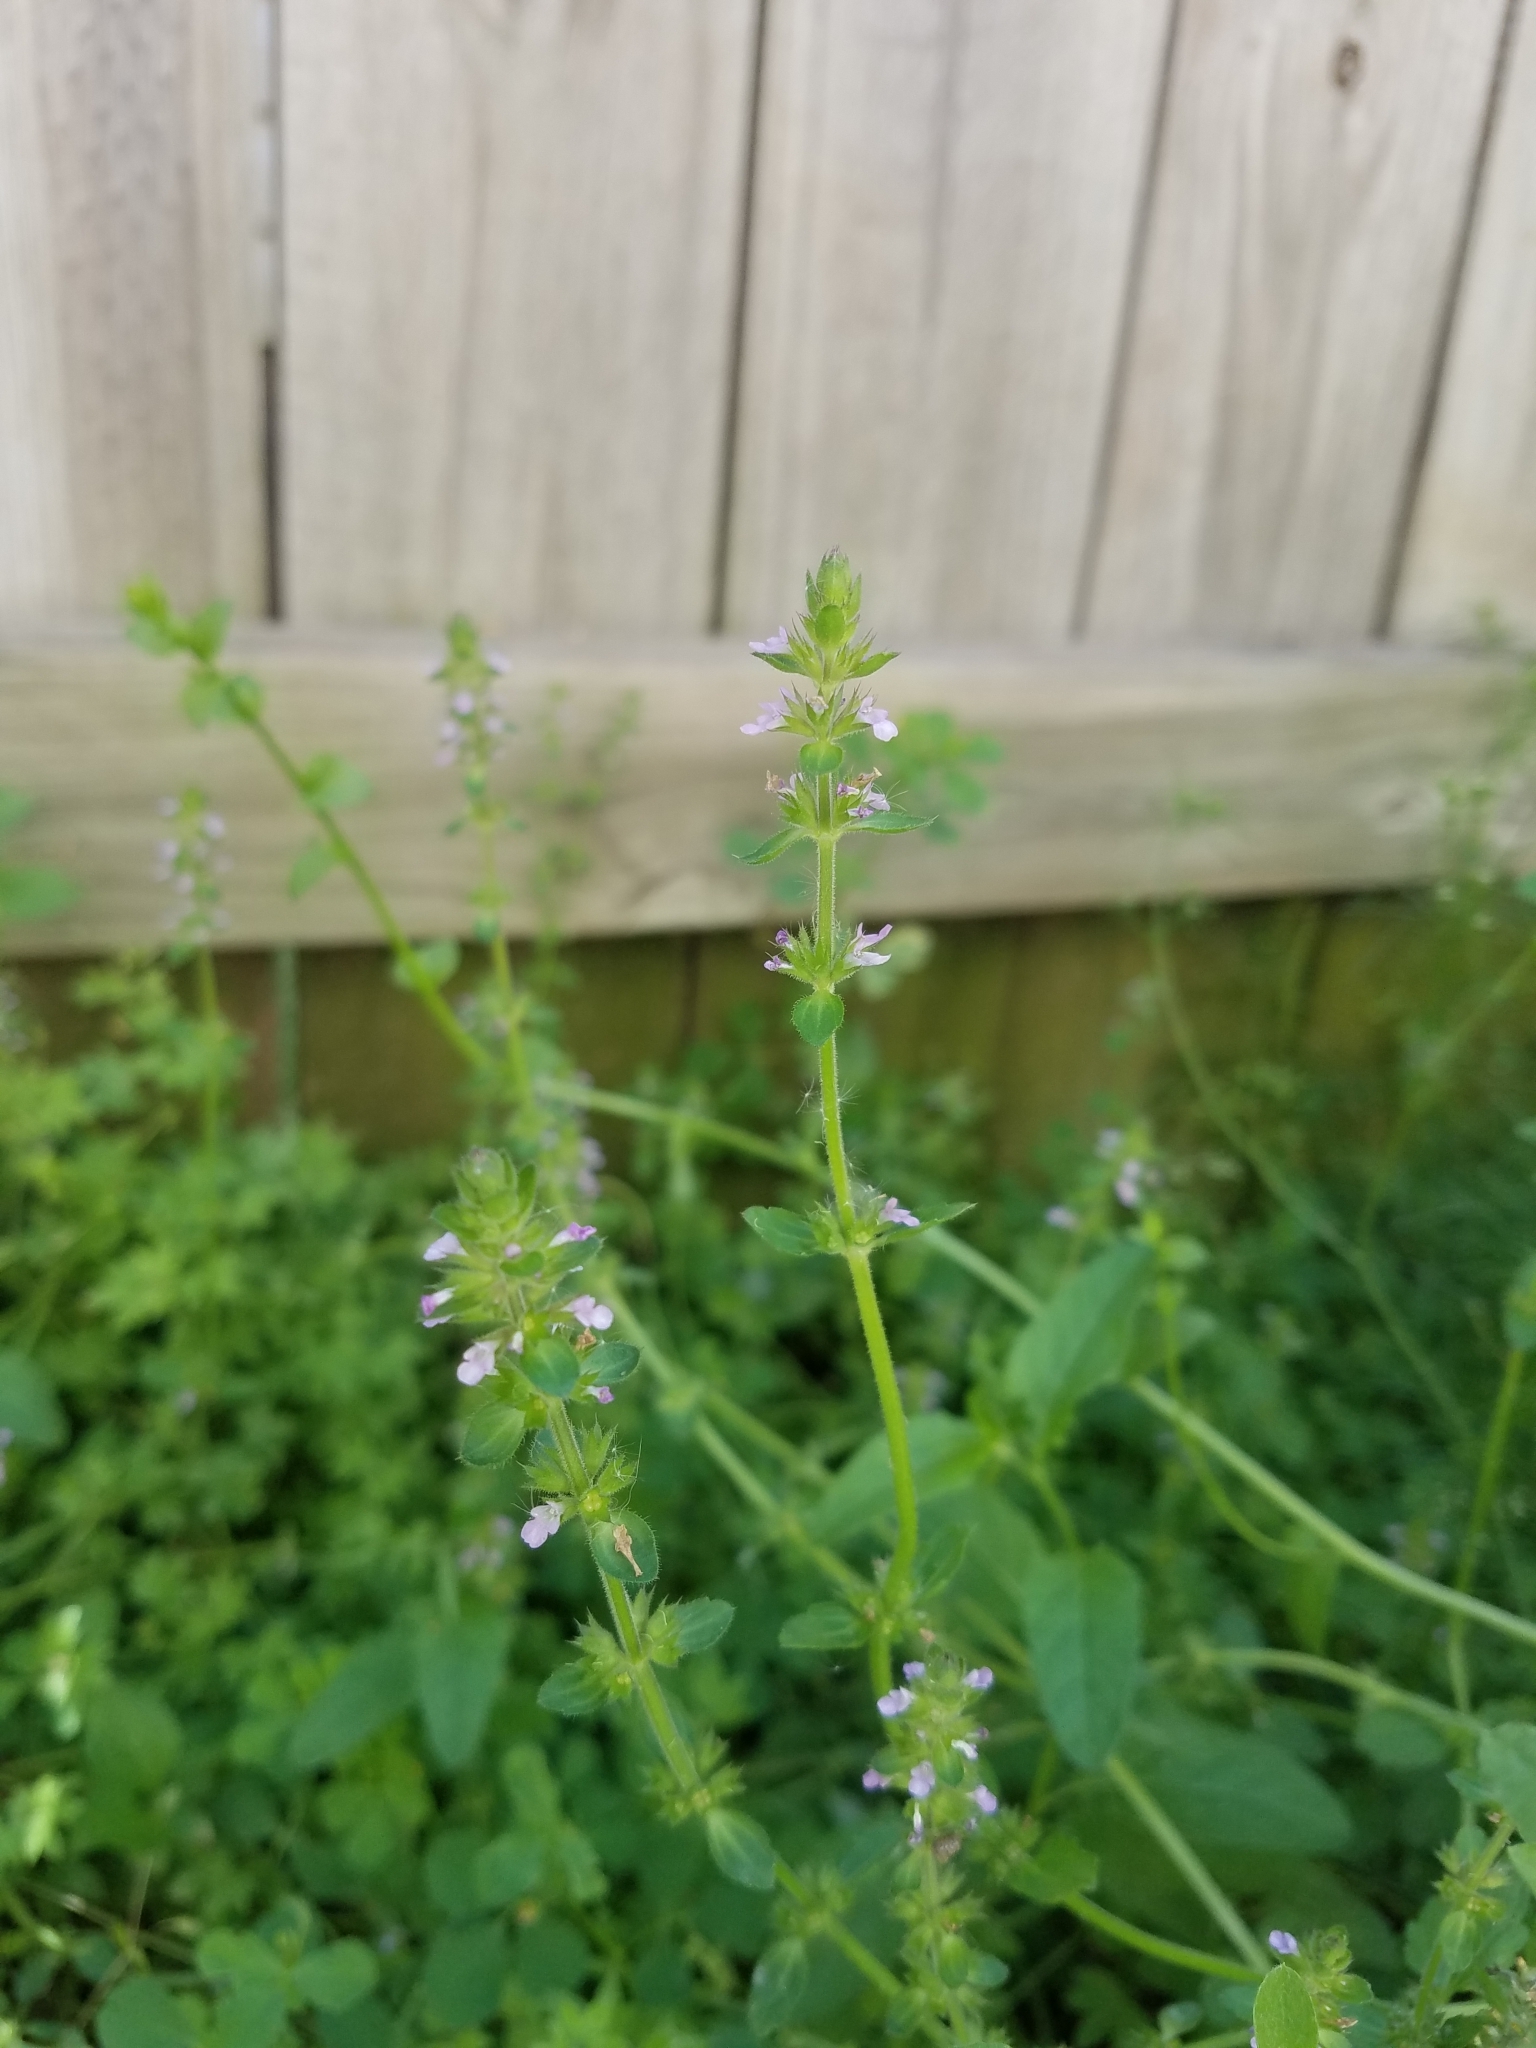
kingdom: Plantae
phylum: Tracheophyta
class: Magnoliopsida
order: Lamiales
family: Lamiaceae
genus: Stachys
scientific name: Stachys
